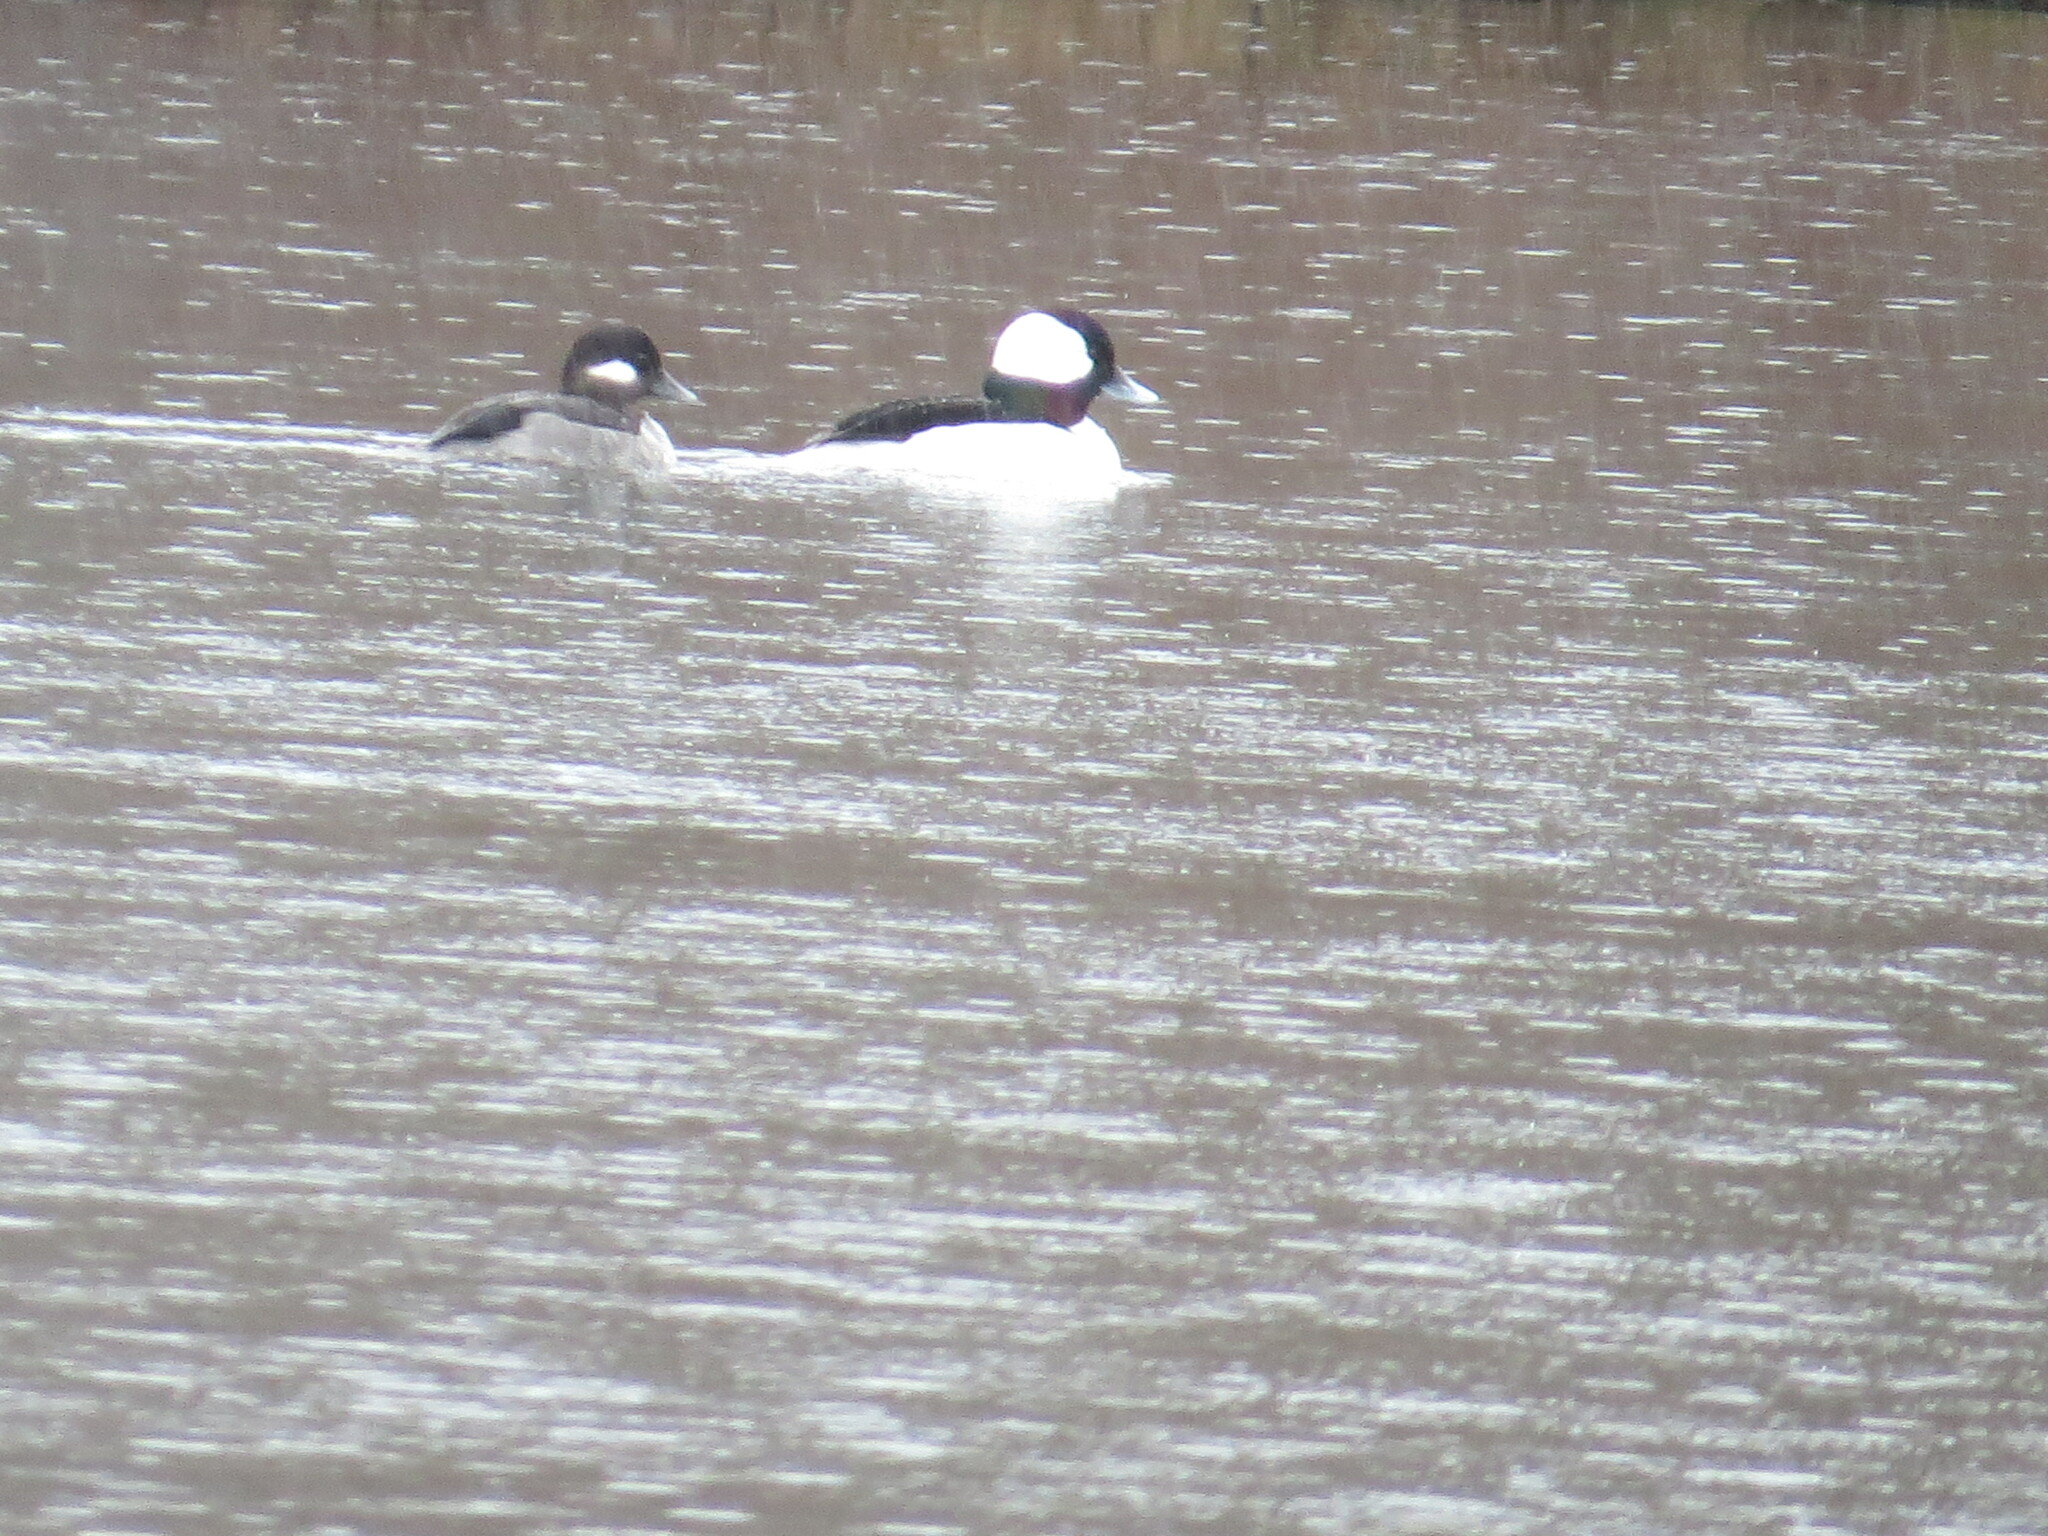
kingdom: Animalia
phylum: Chordata
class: Aves
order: Anseriformes
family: Anatidae
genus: Bucephala
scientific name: Bucephala albeola
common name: Bufflehead
